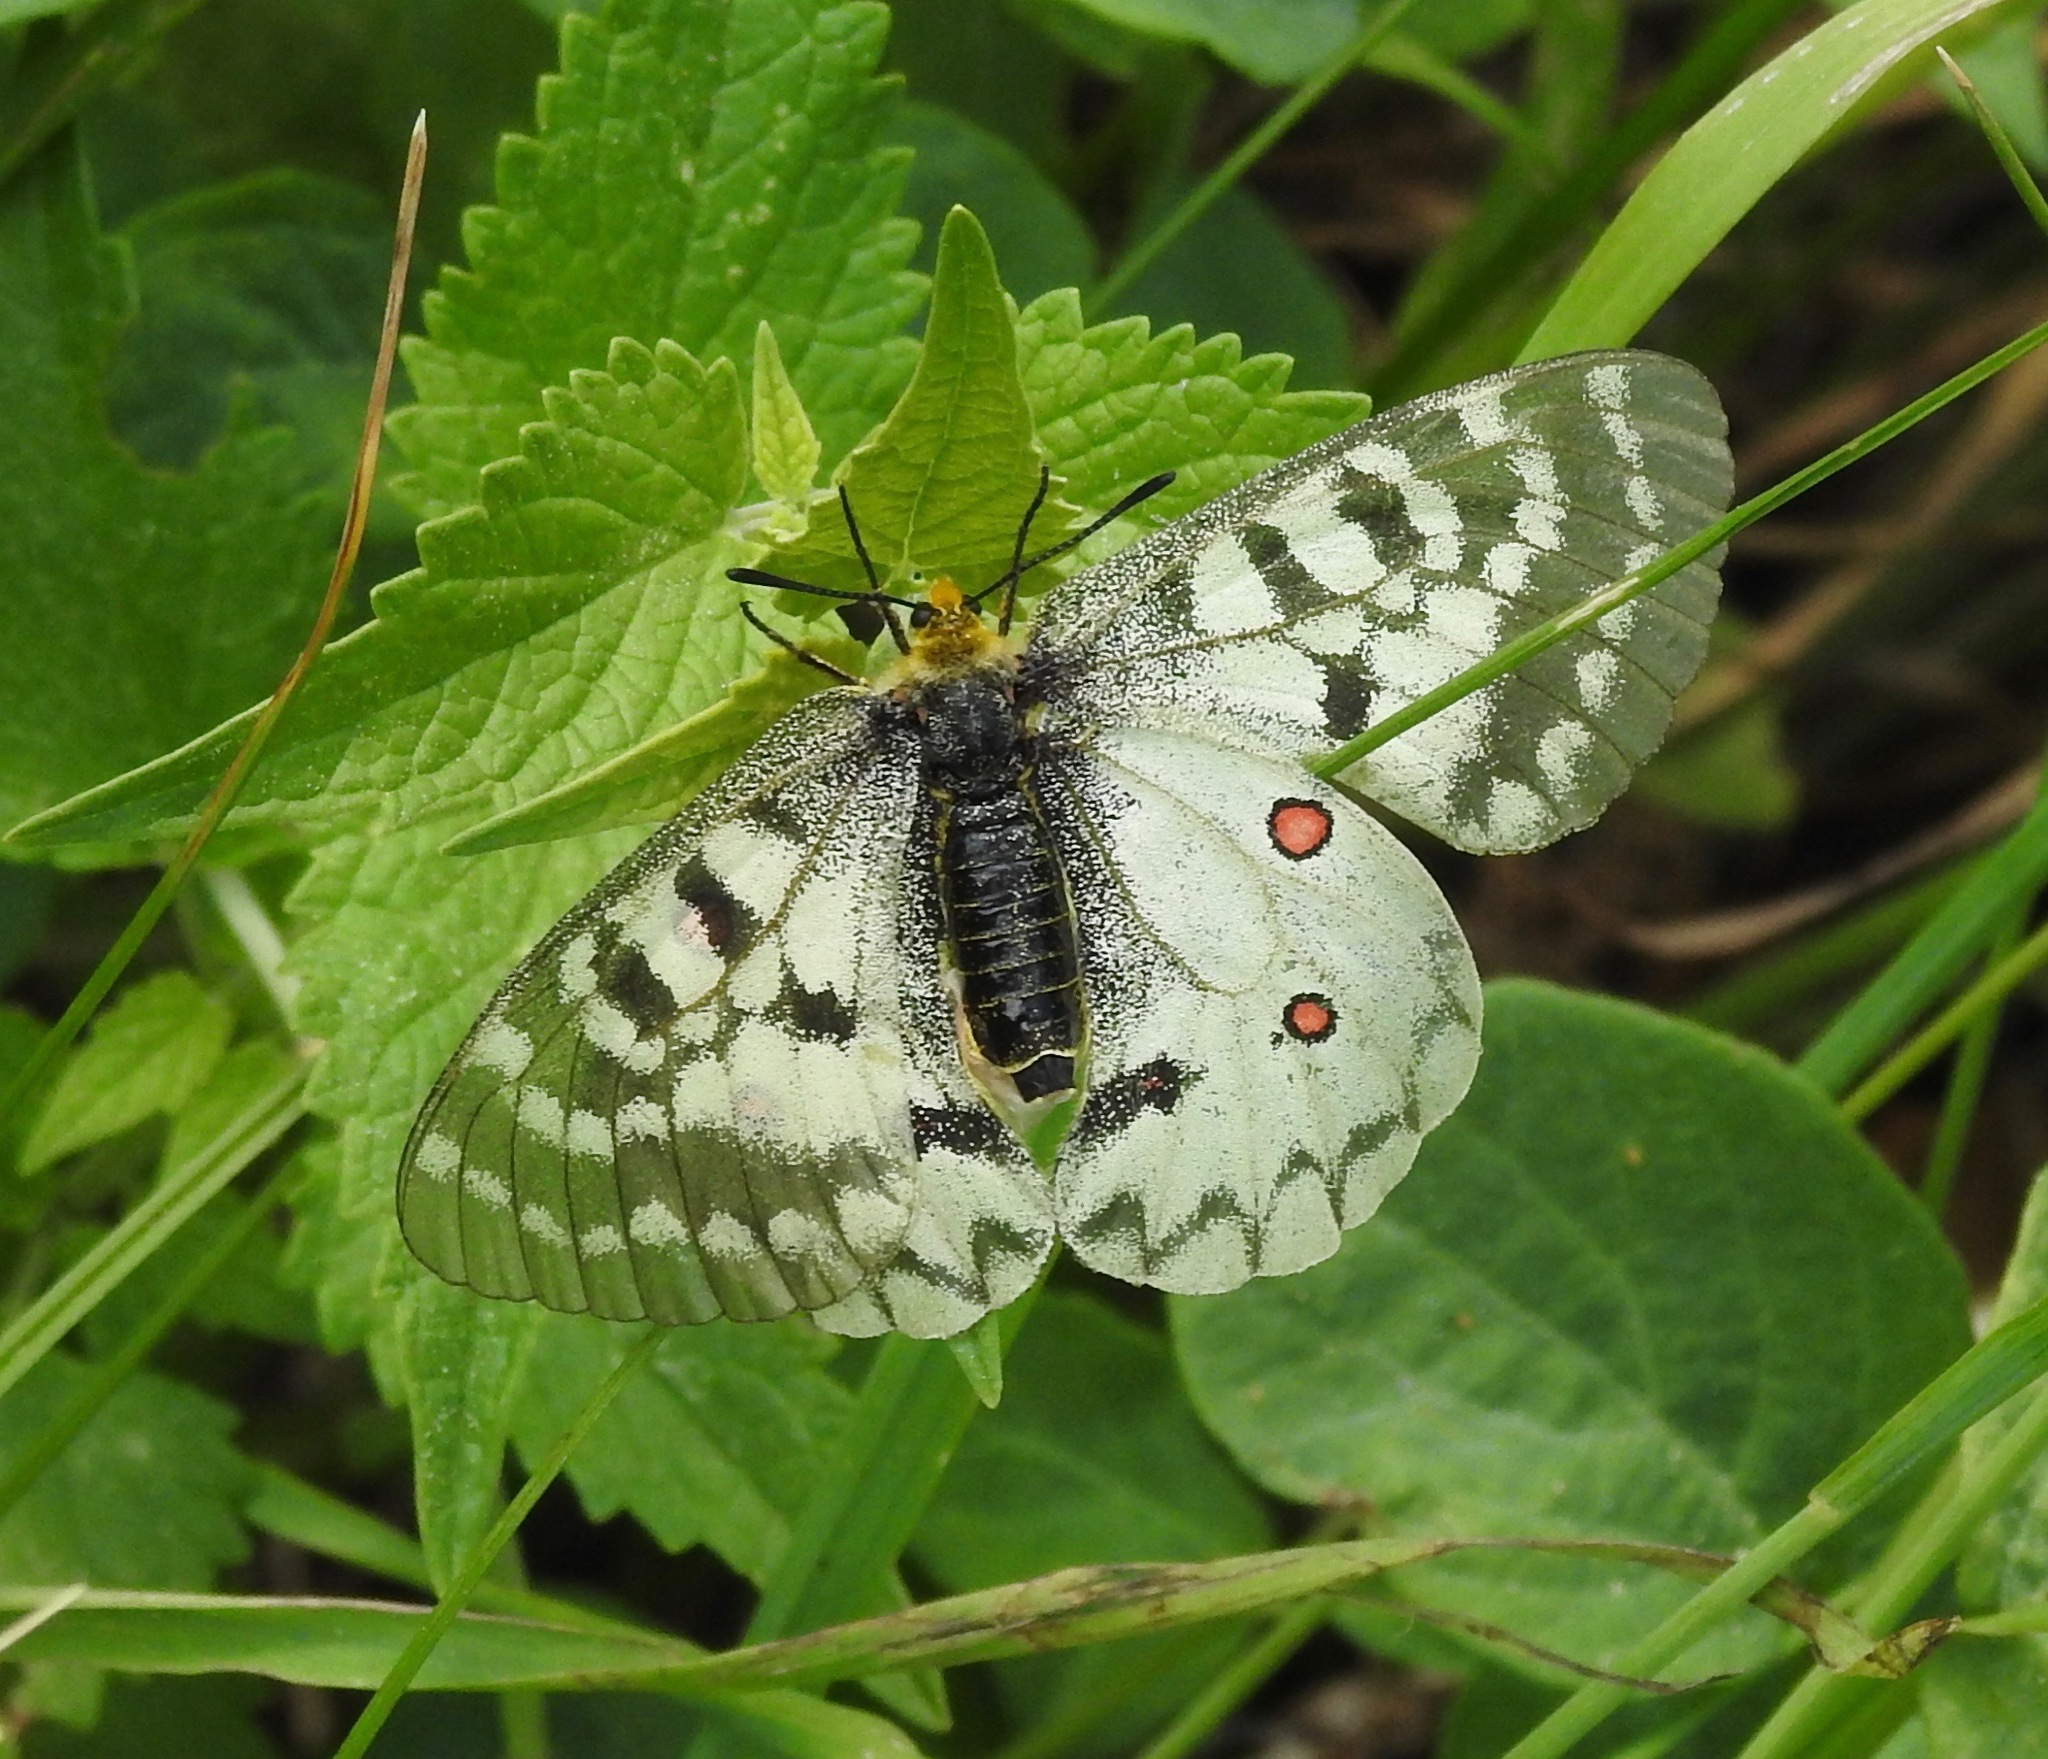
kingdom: Animalia
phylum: Arthropoda
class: Insecta
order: Lepidoptera
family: Papilionidae
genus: Parnassius
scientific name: Parnassius clodius
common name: American apollo
